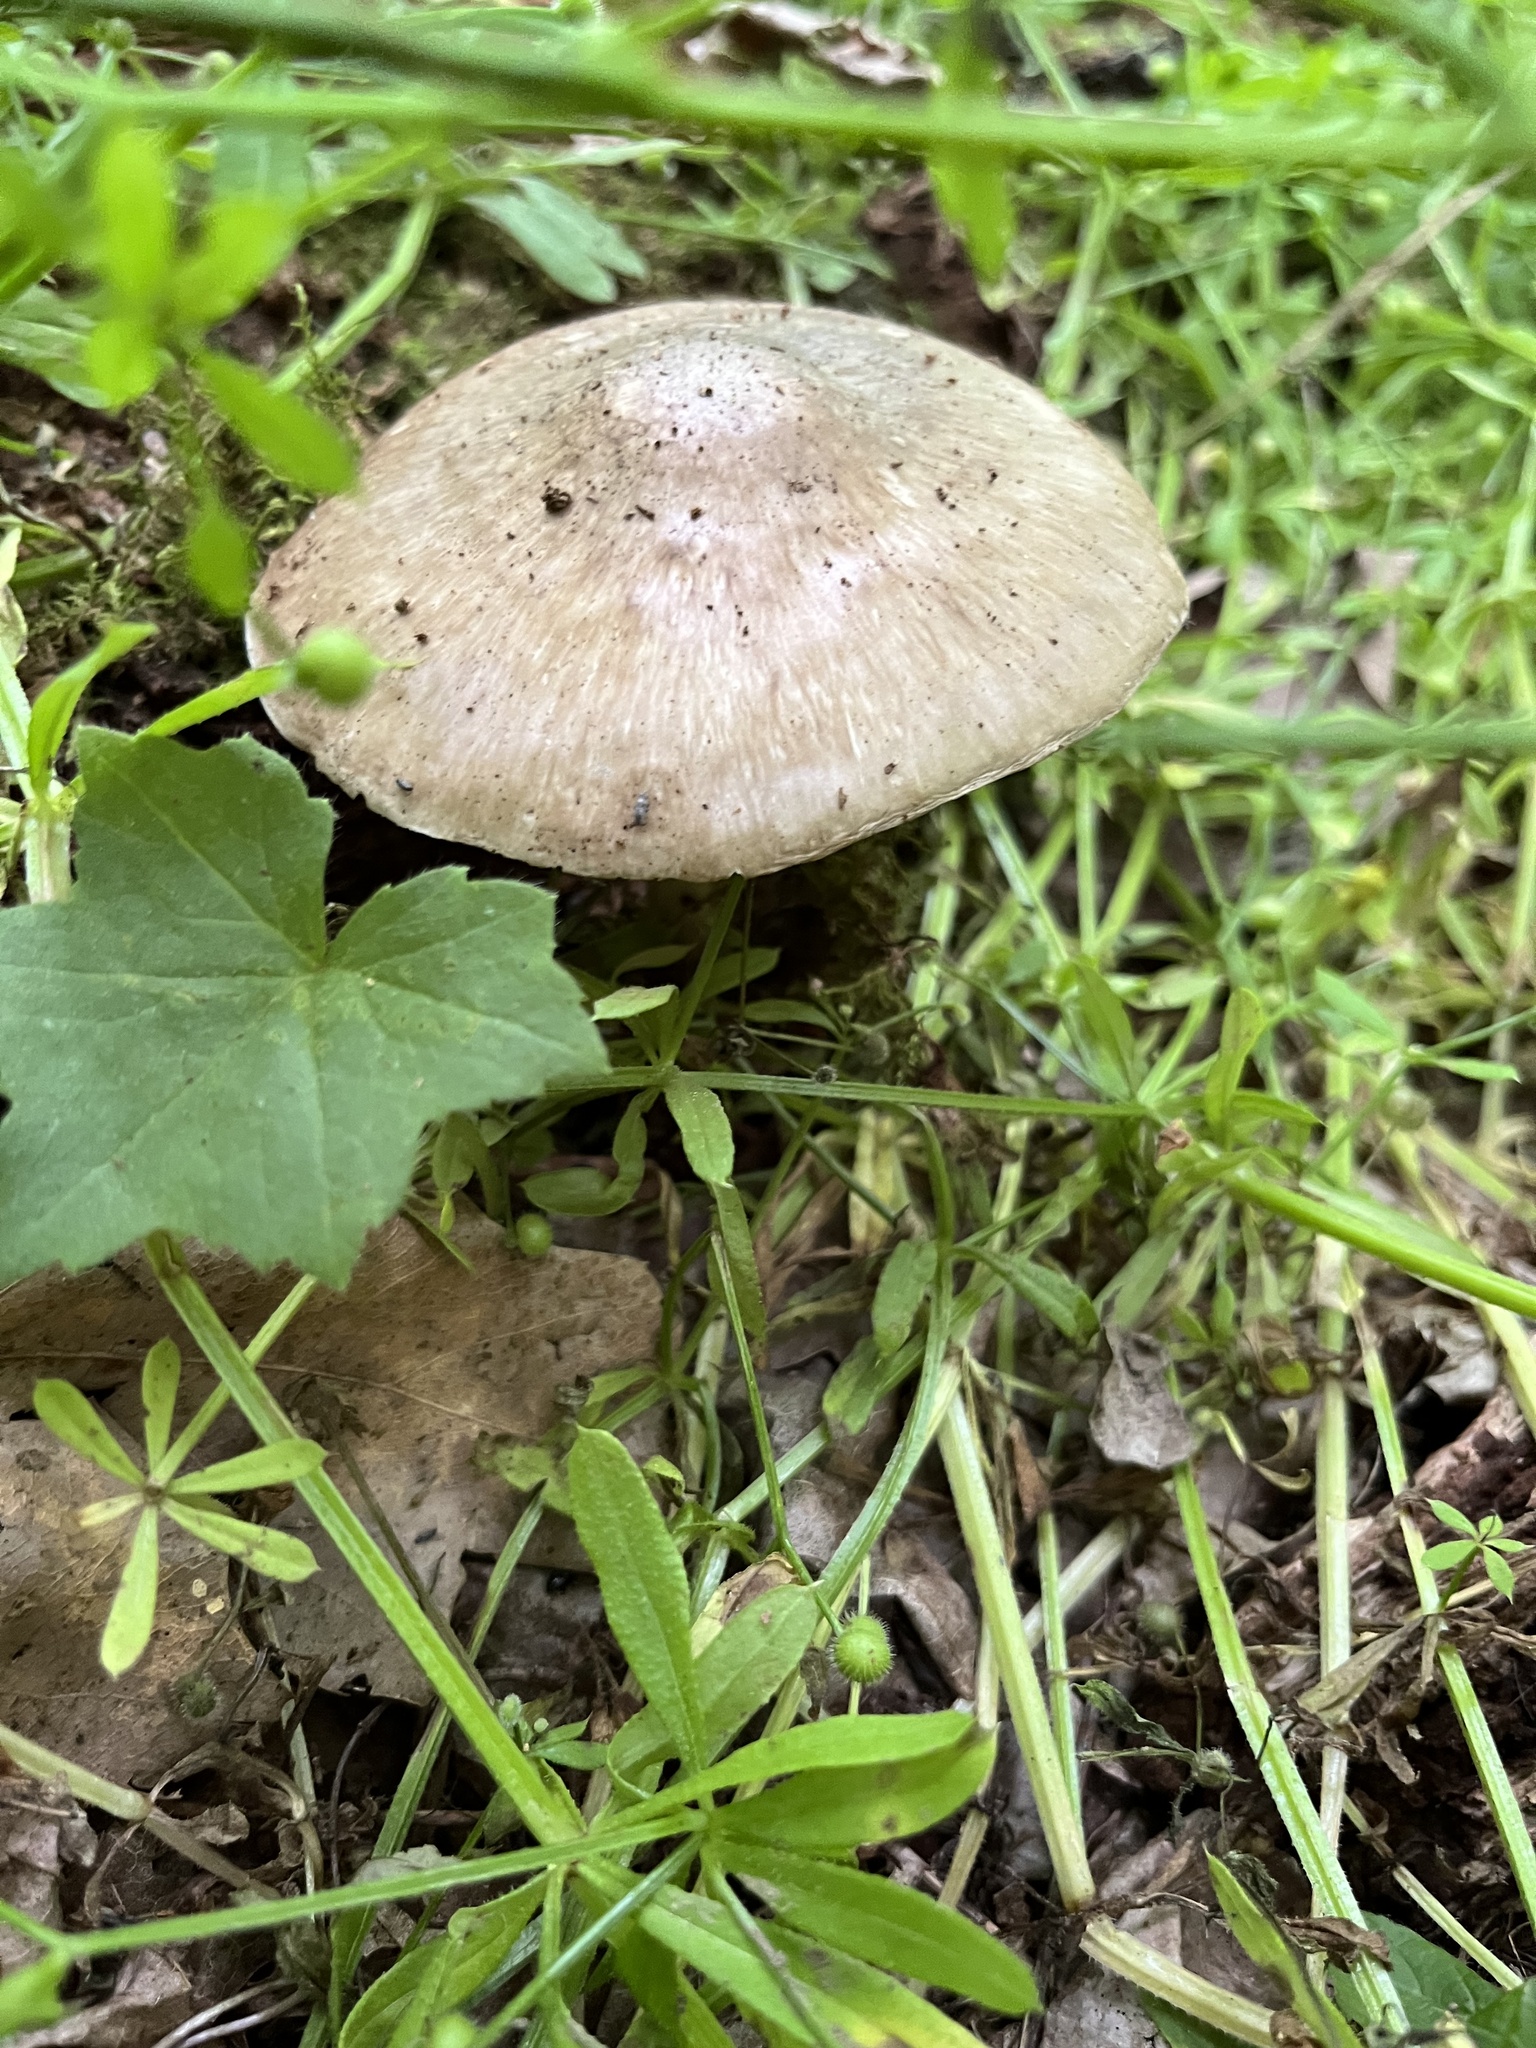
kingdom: Fungi
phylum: Basidiomycota
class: Agaricomycetes
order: Agaricales
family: Pluteaceae
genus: Pluteus
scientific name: Pluteus cervinus
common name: Deer shield
